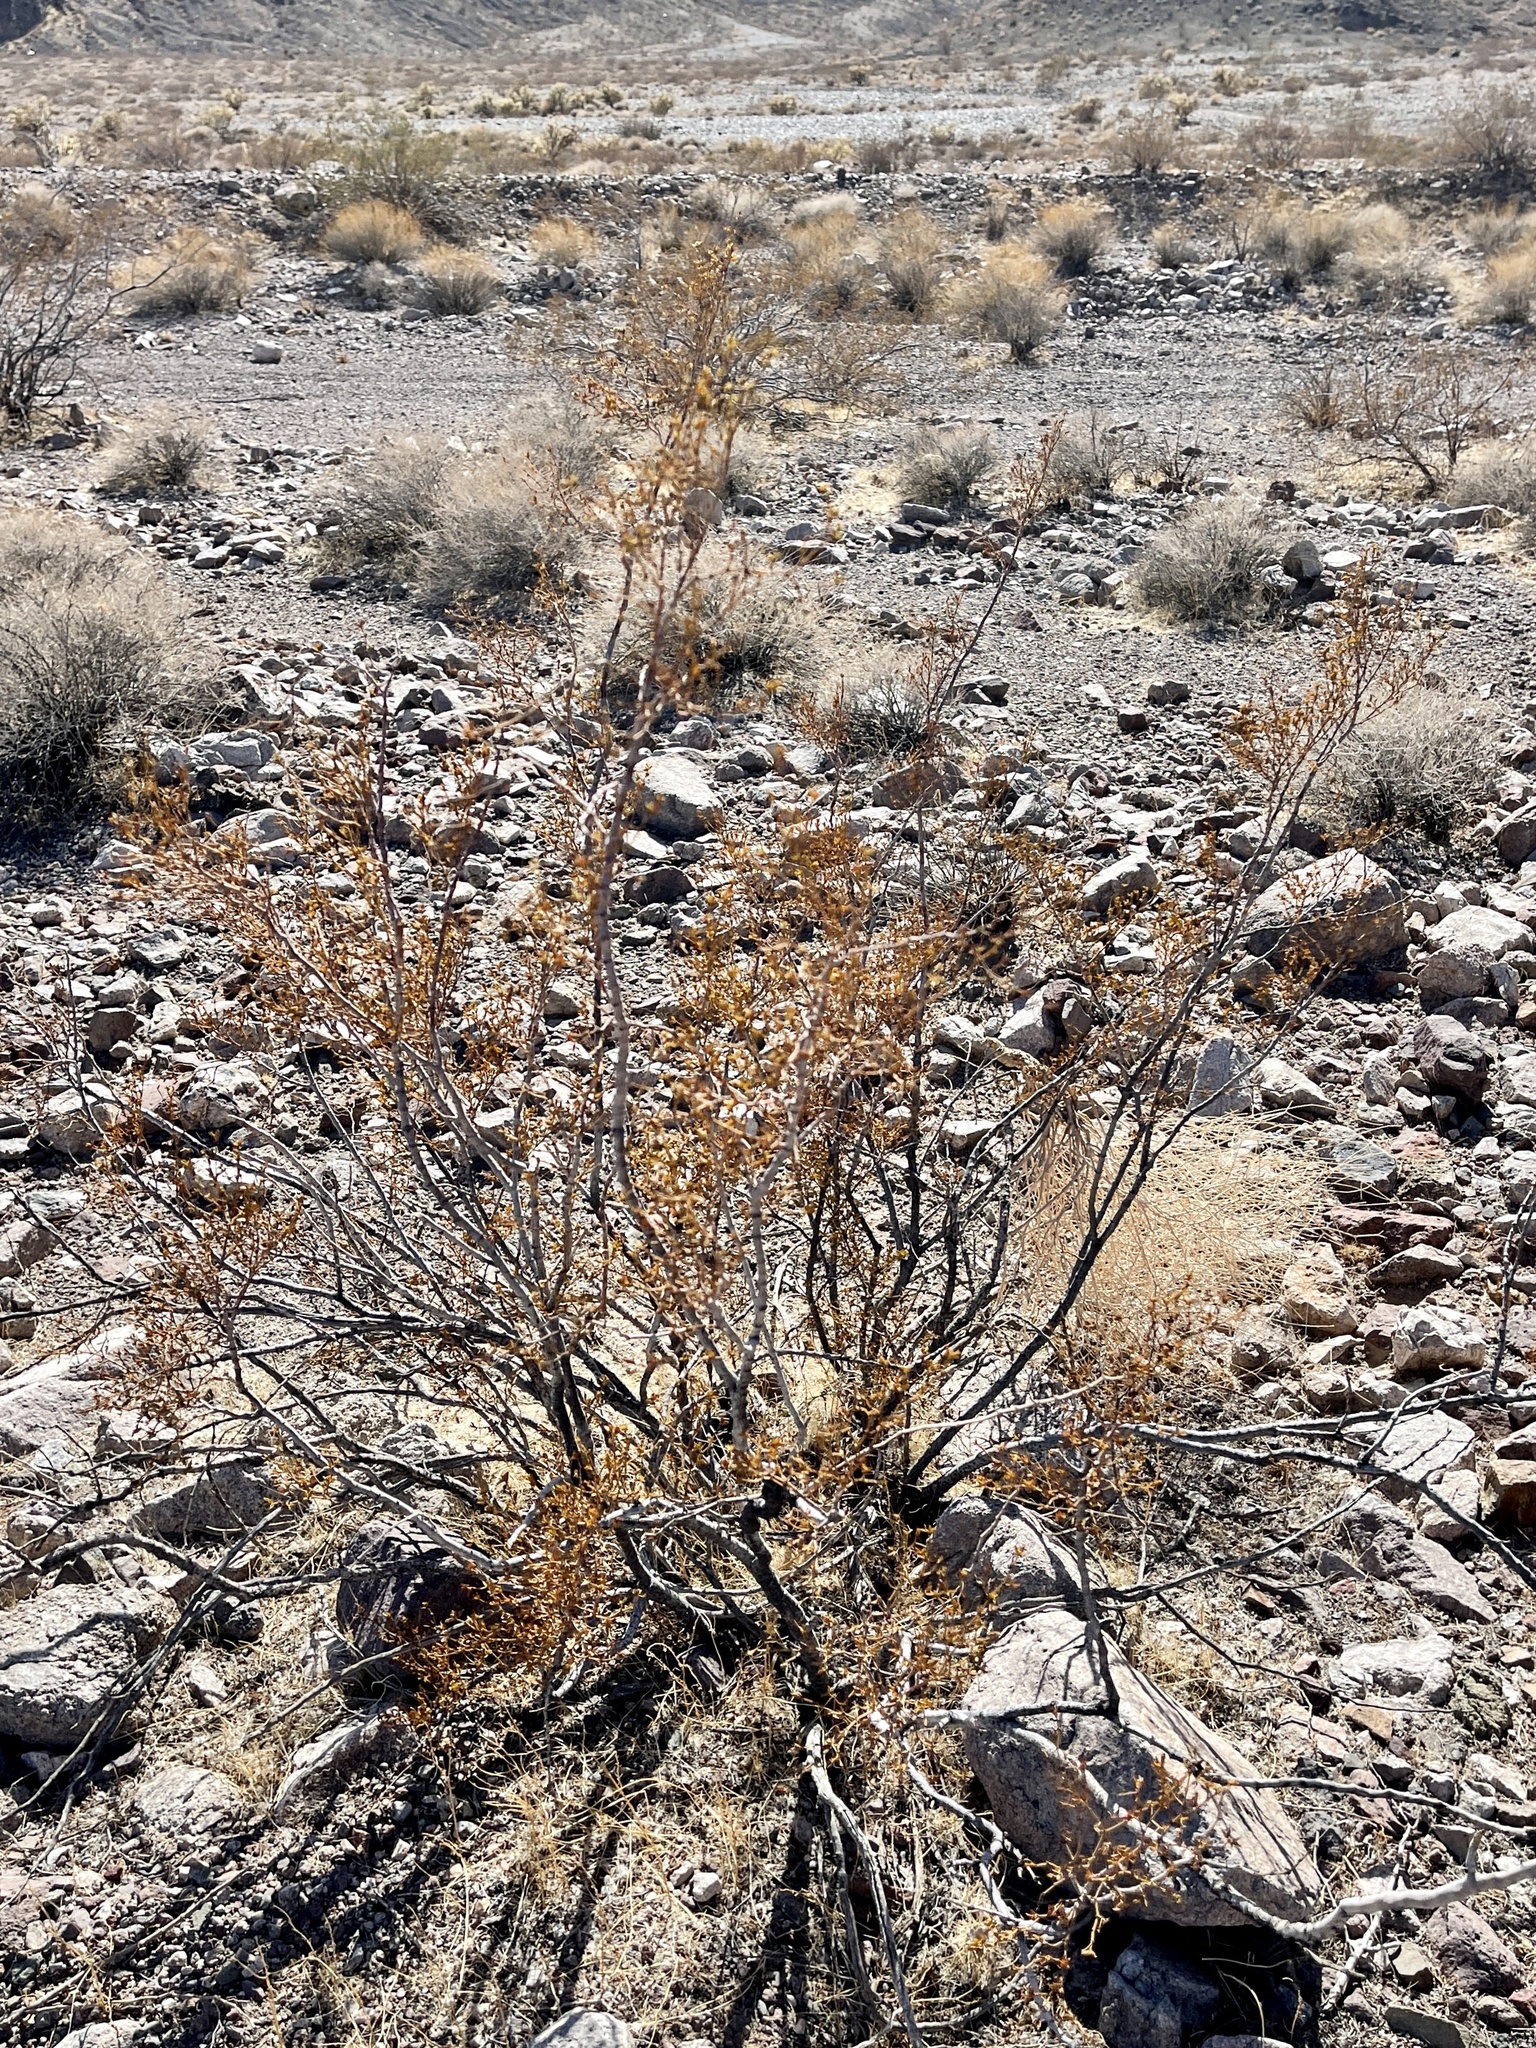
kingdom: Plantae
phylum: Tracheophyta
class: Magnoliopsida
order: Zygophyllales
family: Zygophyllaceae
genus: Larrea
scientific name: Larrea tridentata
